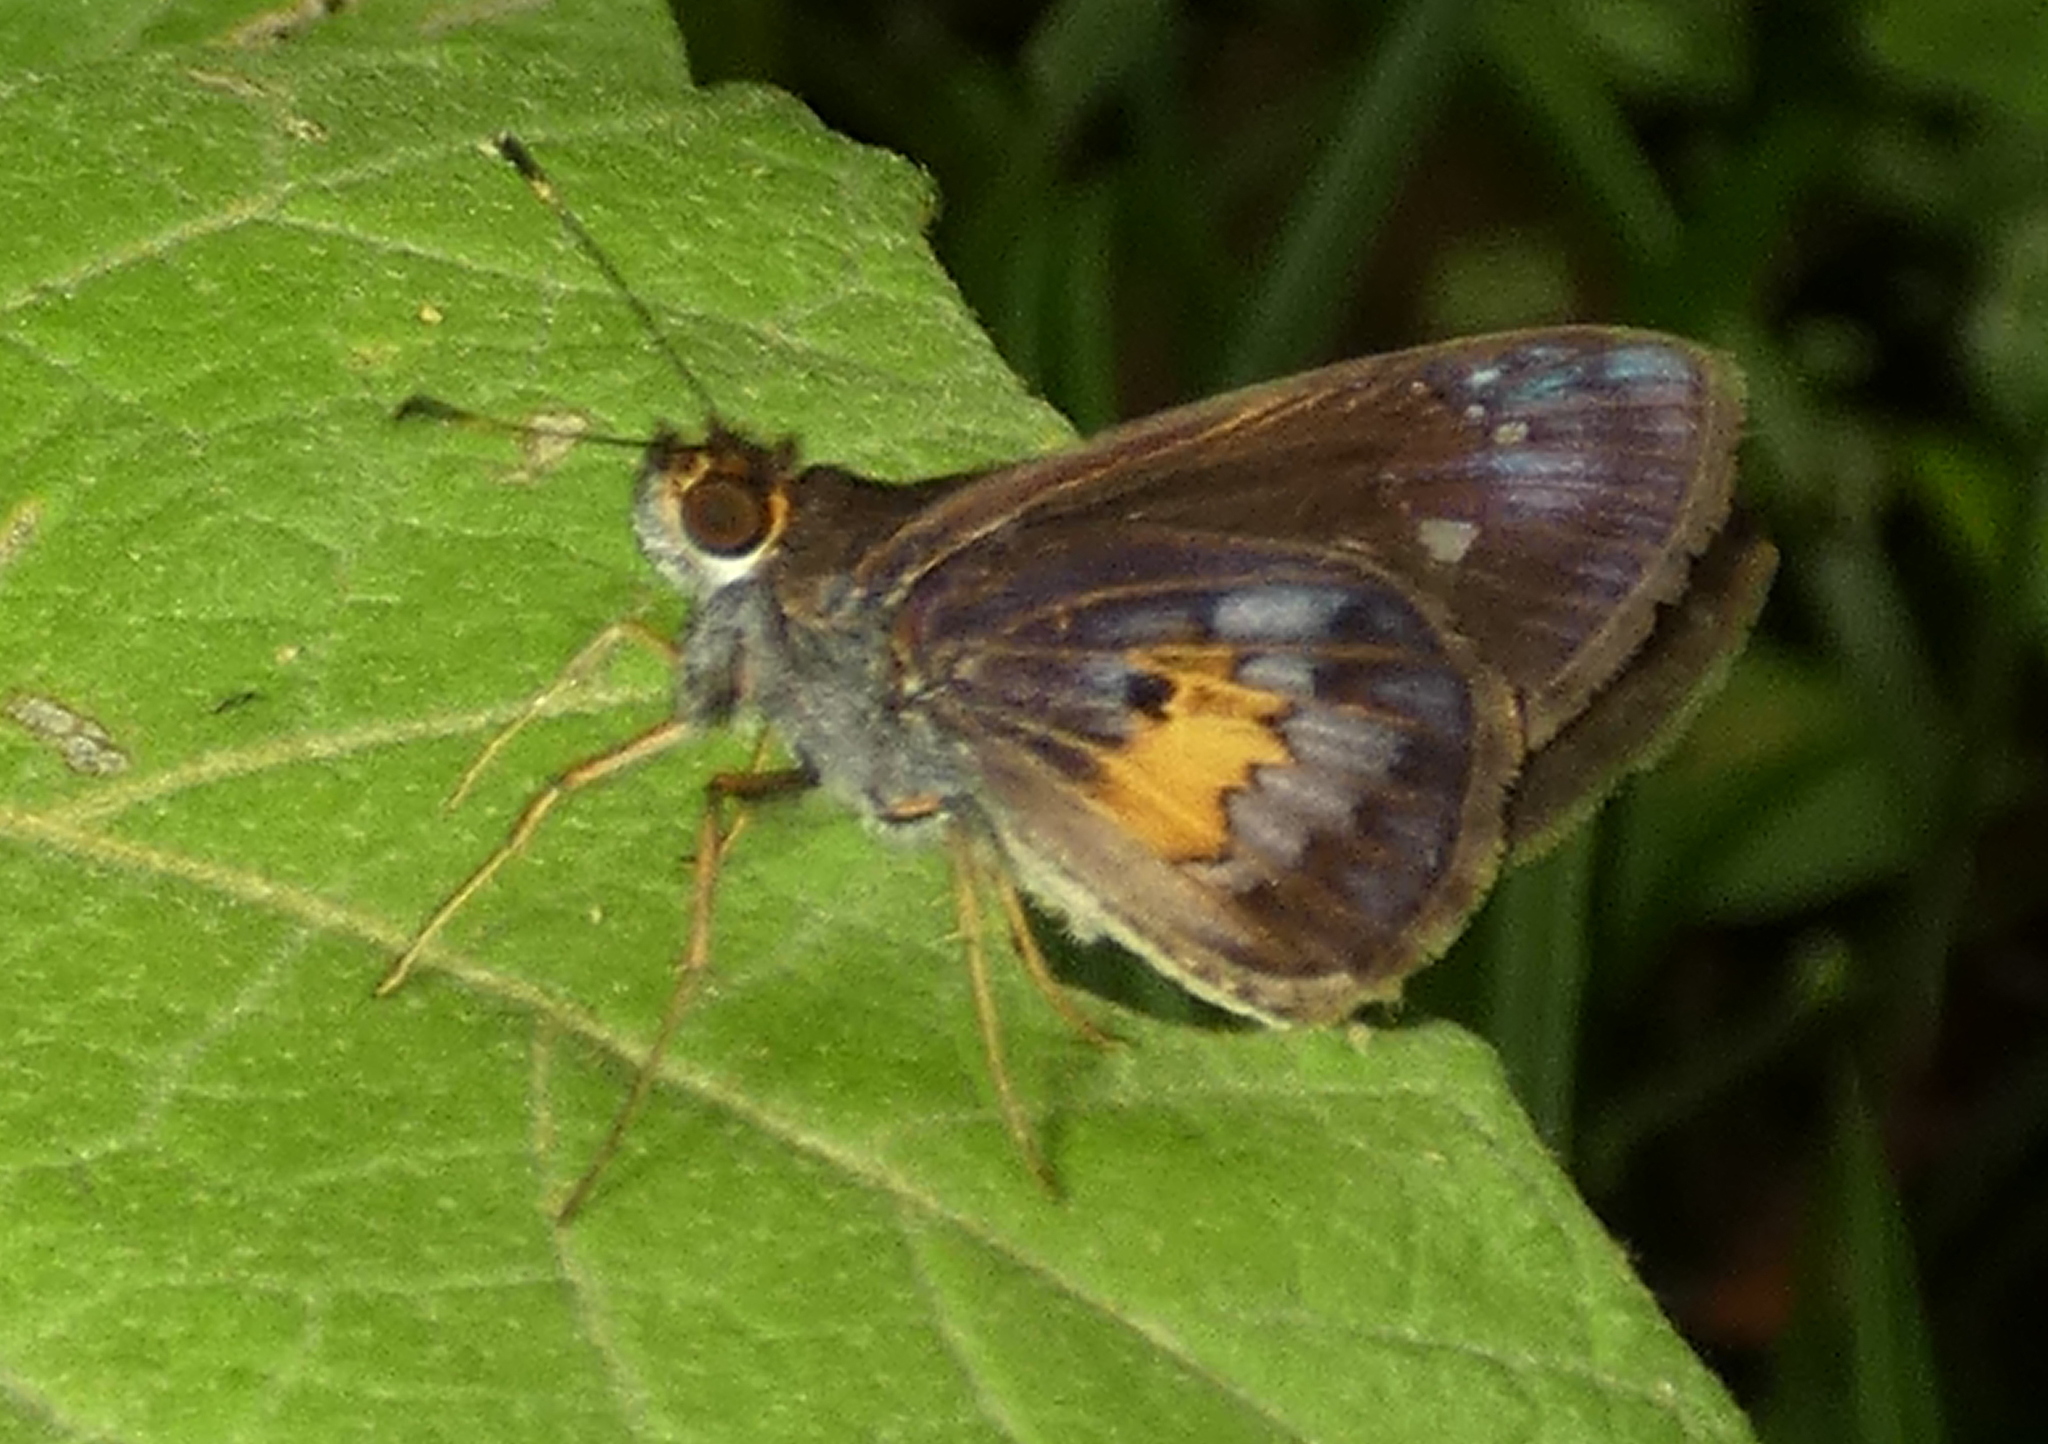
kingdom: Animalia
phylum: Arthropoda
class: Insecta
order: Lepidoptera
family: Hesperiidae
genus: Phanis
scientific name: Phanis aletes
